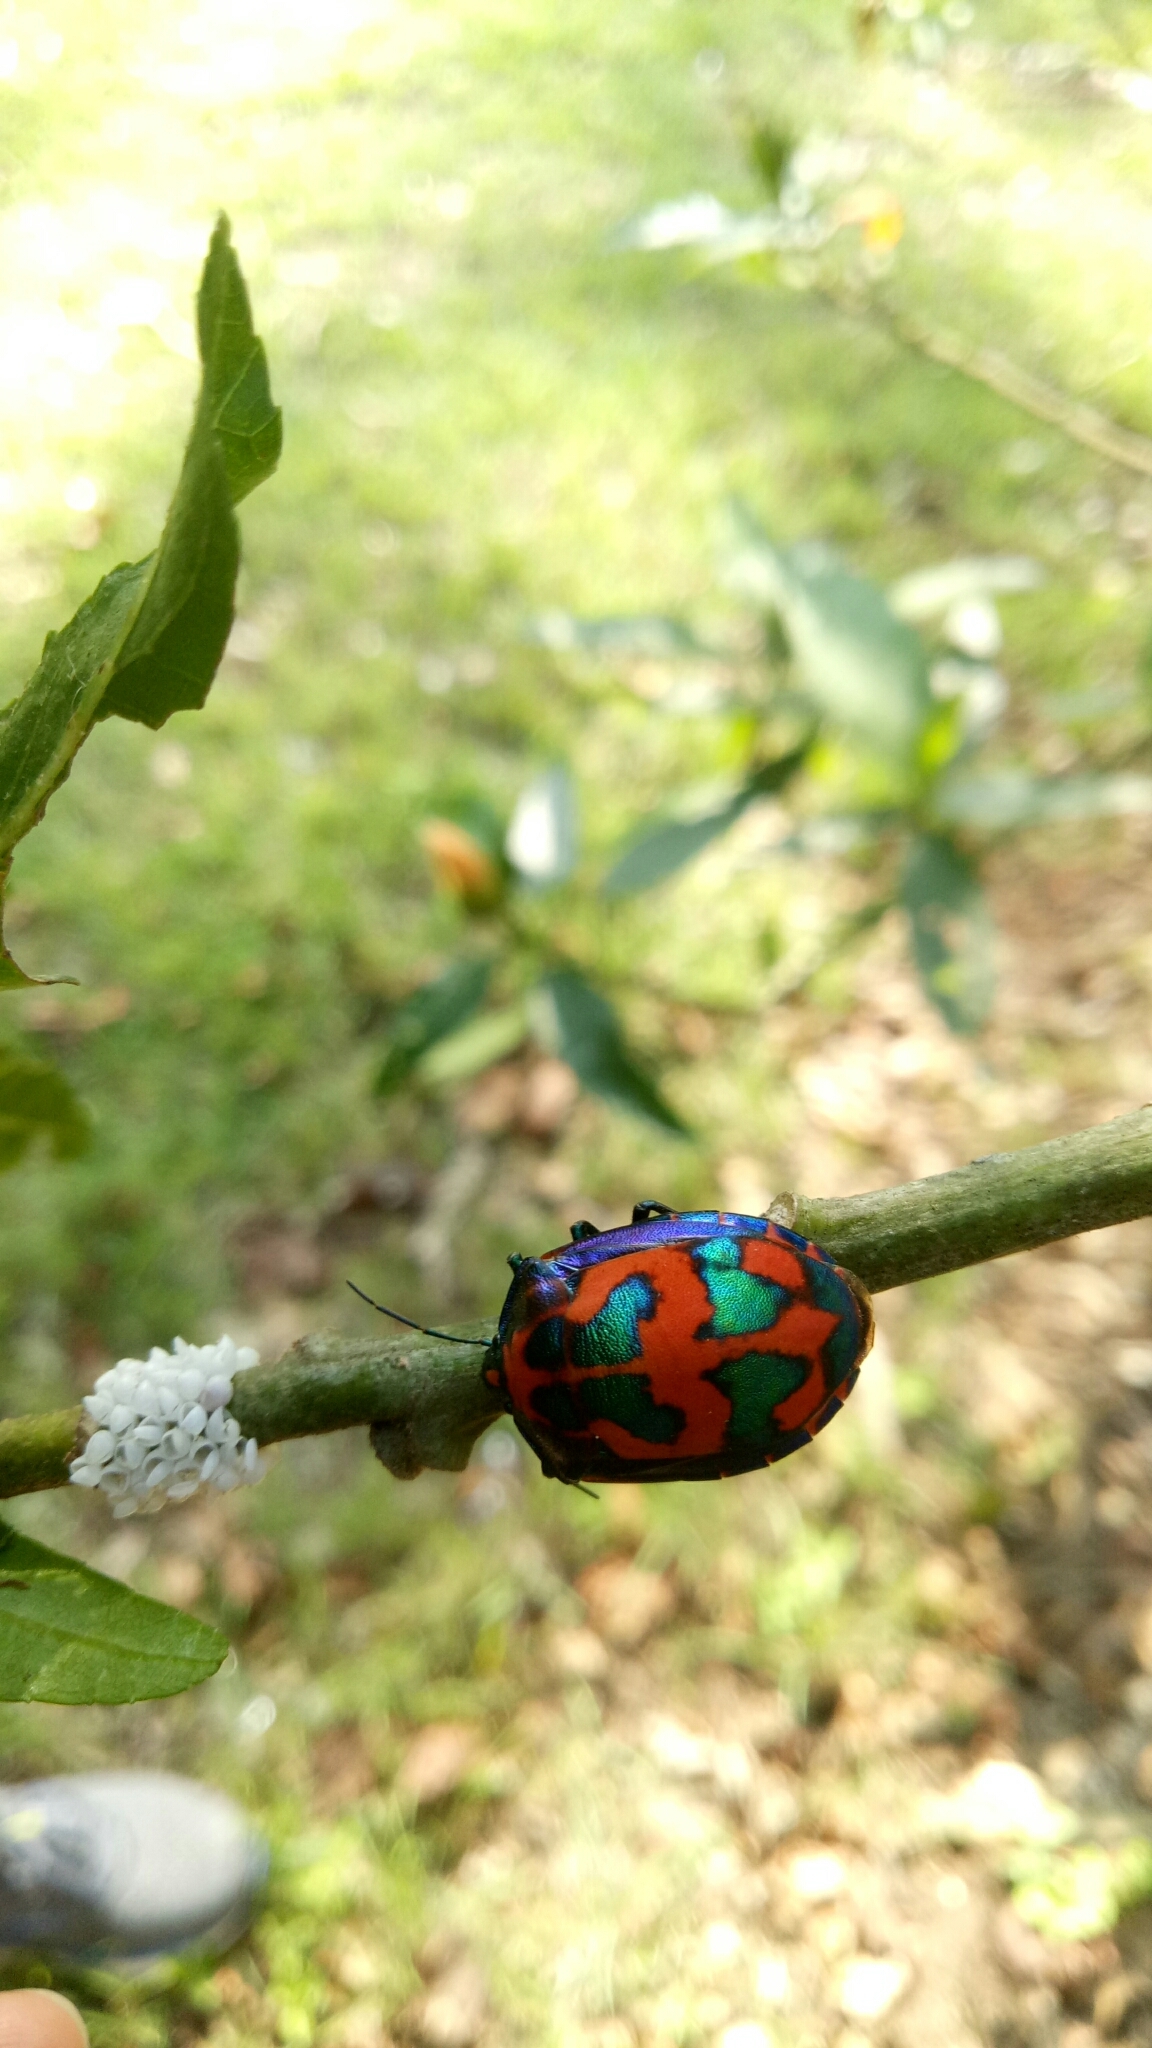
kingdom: Animalia
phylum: Arthropoda
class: Insecta
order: Hemiptera
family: Scutelleridae
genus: Tectocoris
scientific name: Tectocoris diophthalmus
